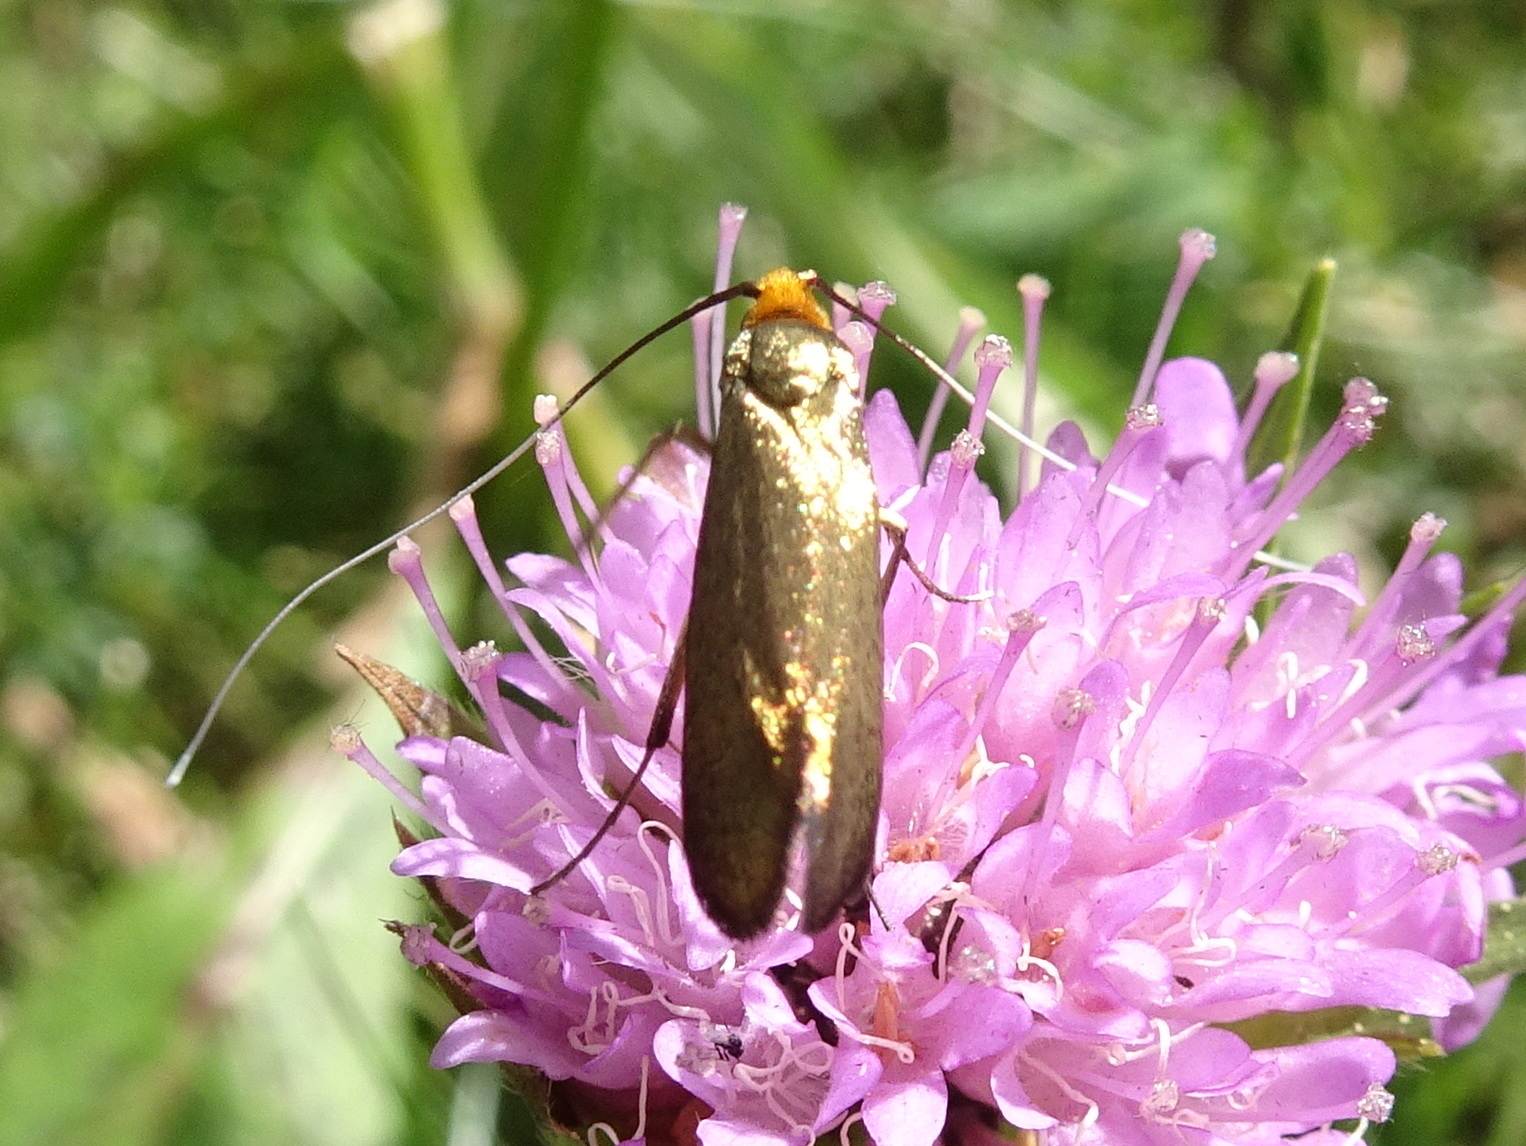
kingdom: Animalia
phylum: Arthropoda
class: Insecta
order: Lepidoptera
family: Adelidae
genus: Nemophora
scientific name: Nemophora metallica
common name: Brassy long-horn
